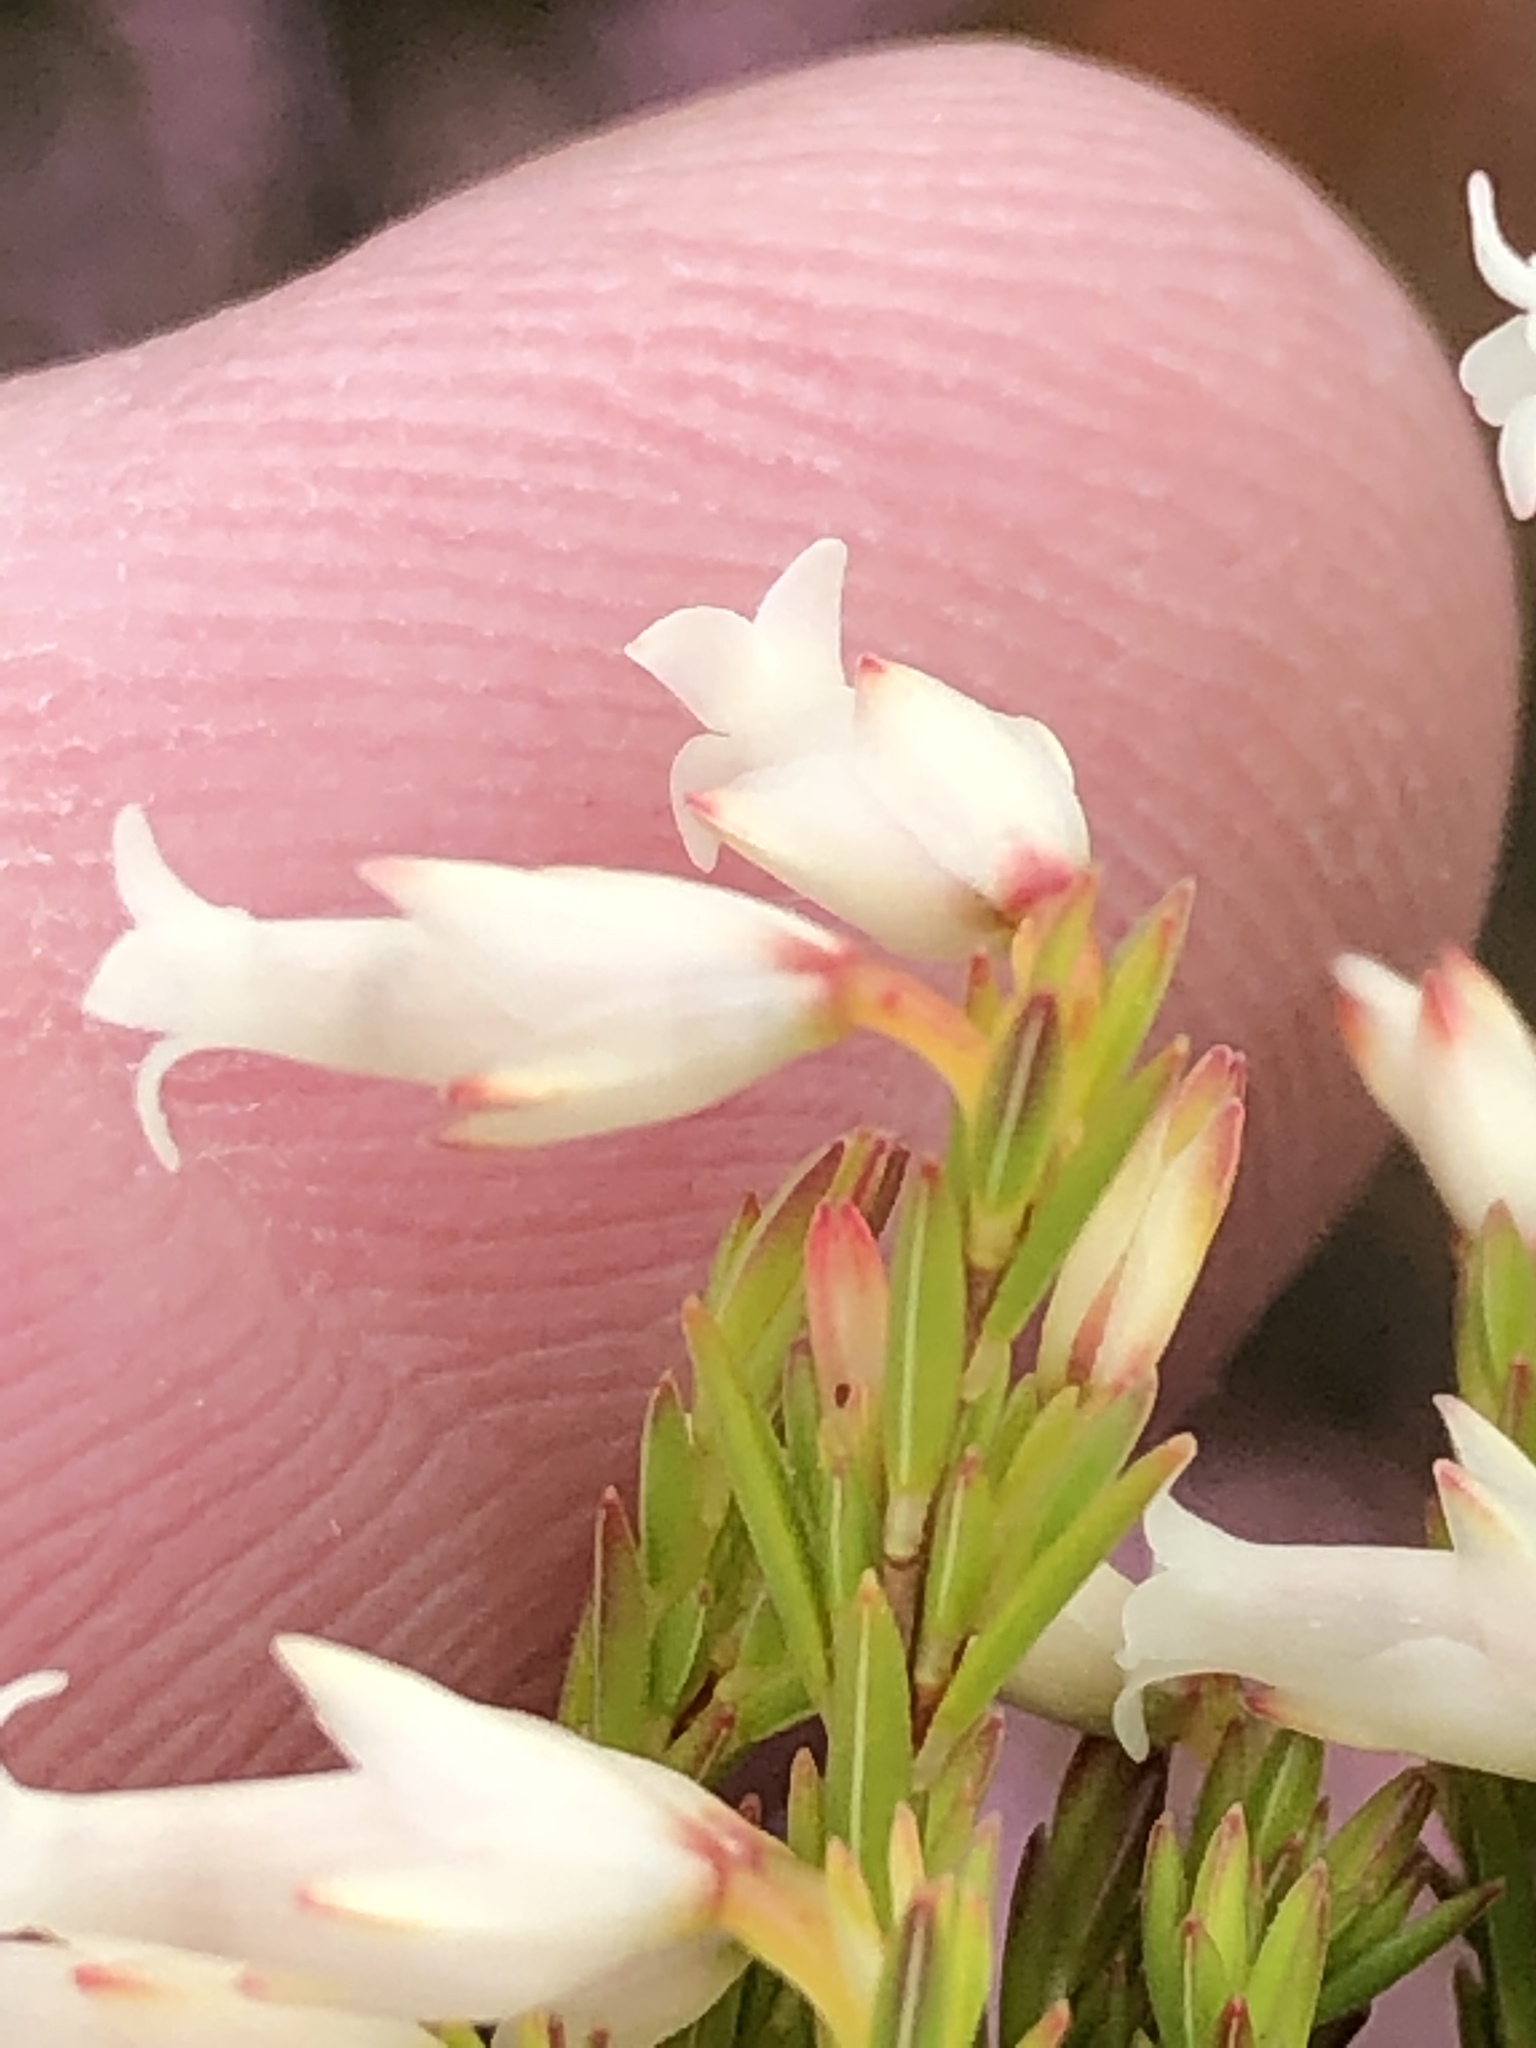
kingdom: Plantae
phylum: Tracheophyta
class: Magnoliopsida
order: Ericales
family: Ericaceae
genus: Erica
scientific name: Erica lutea
